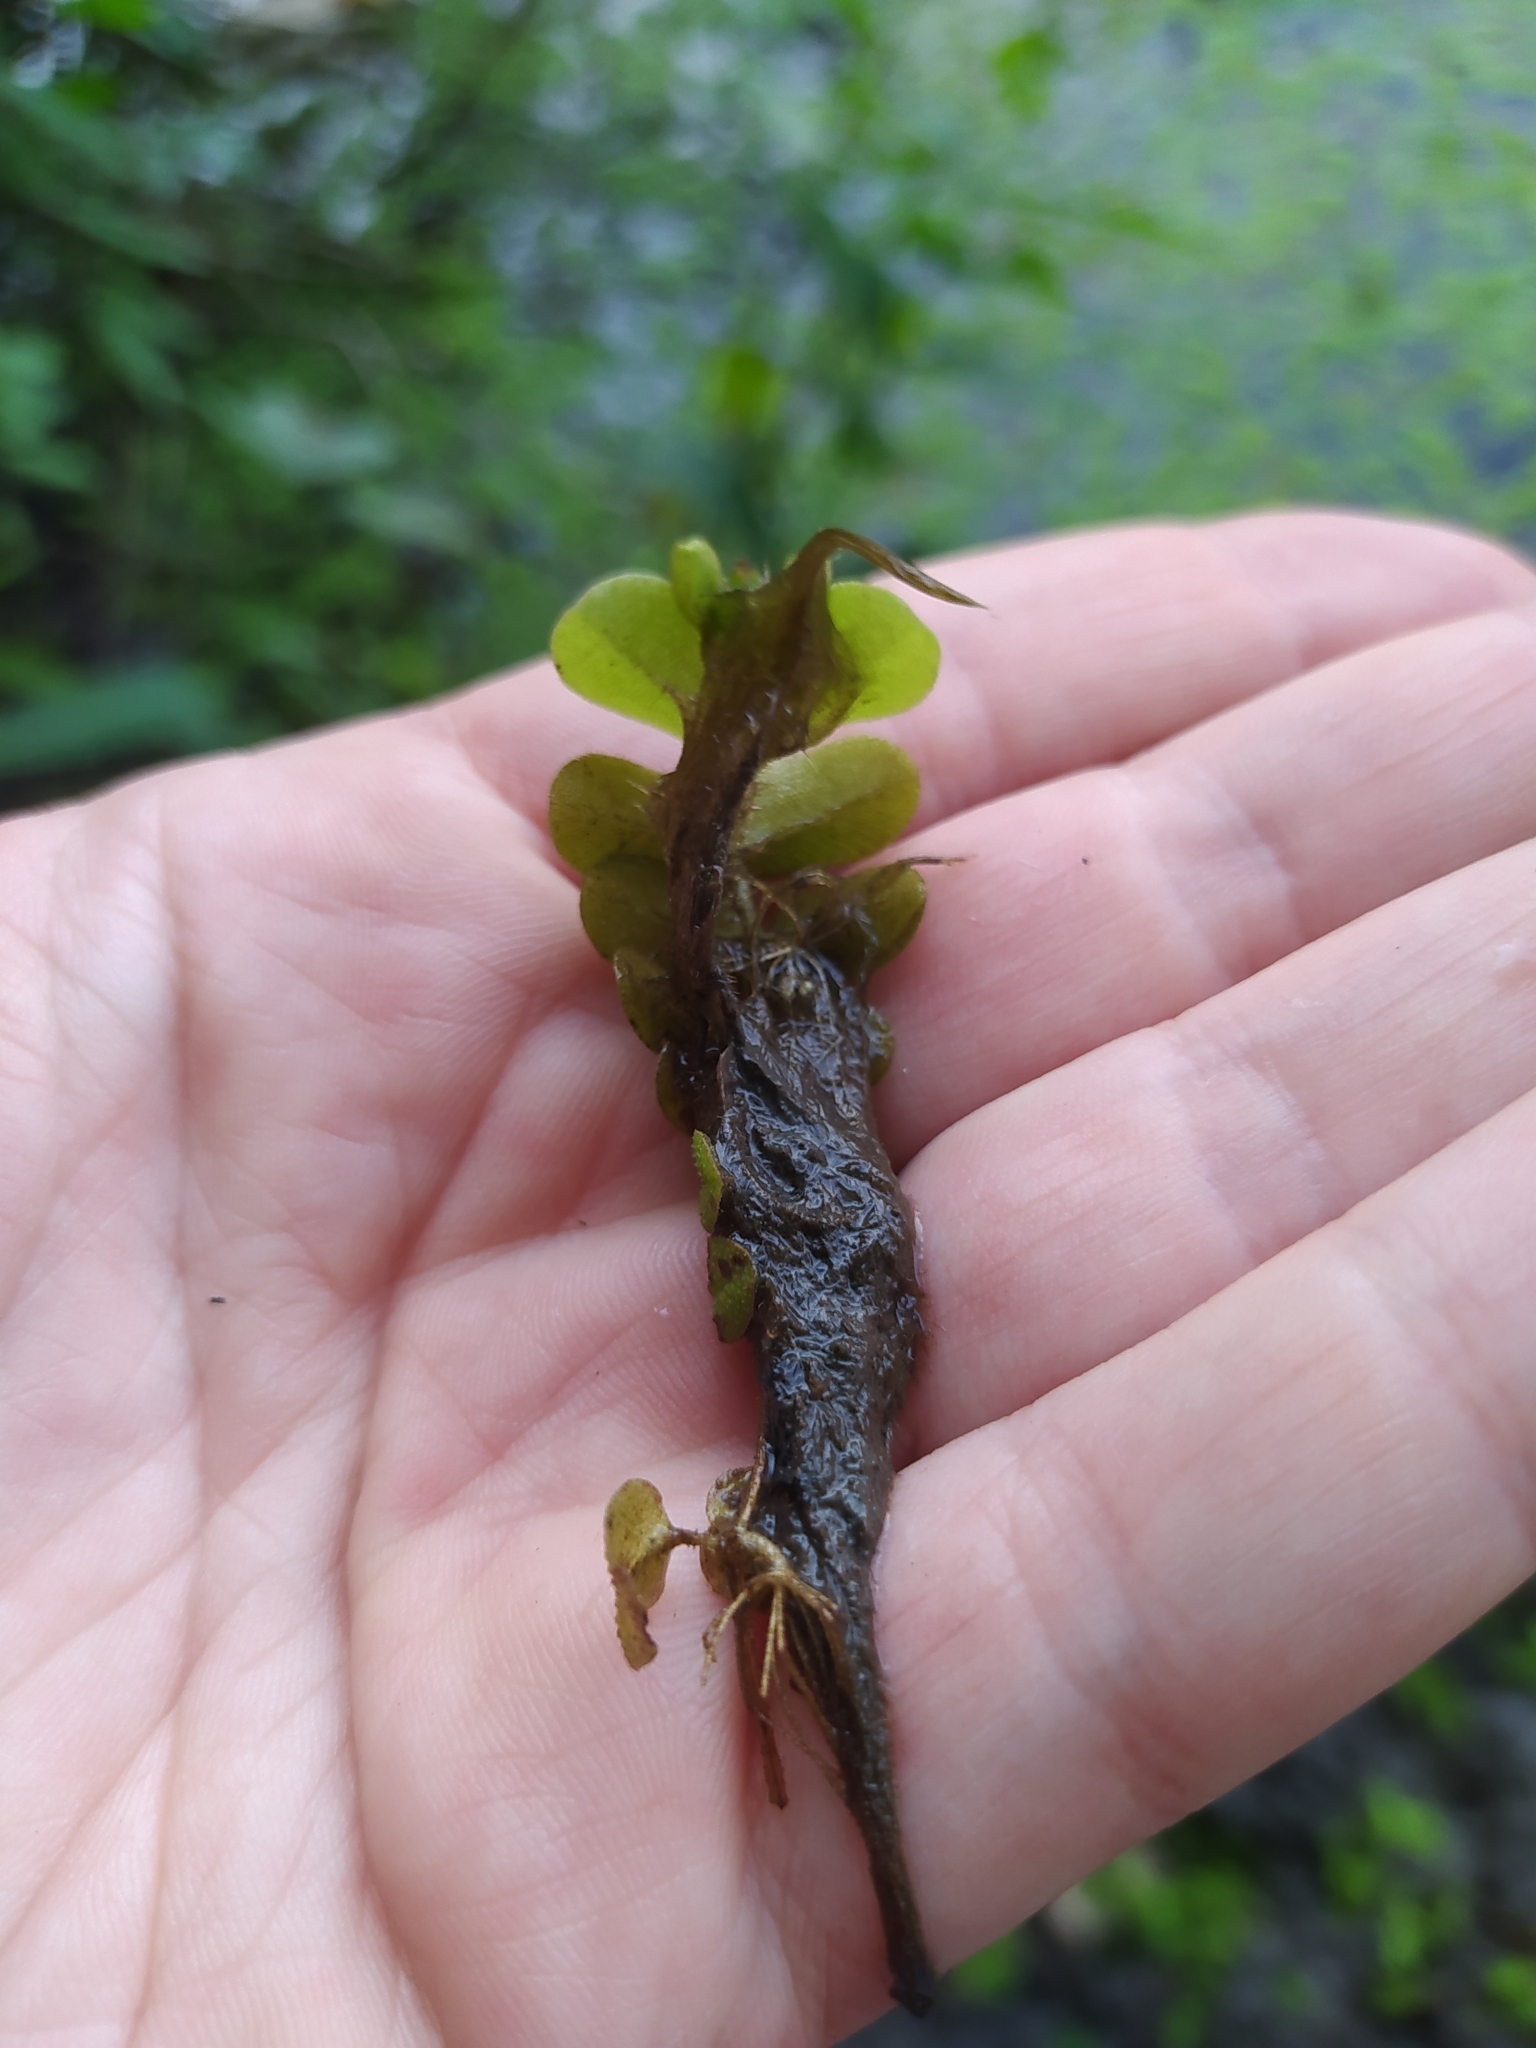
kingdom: Plantae
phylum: Tracheophyta
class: Polypodiopsida
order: Salviniales
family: Salviniaceae
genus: Salvinia
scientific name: Salvinia natans
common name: Floating fern
